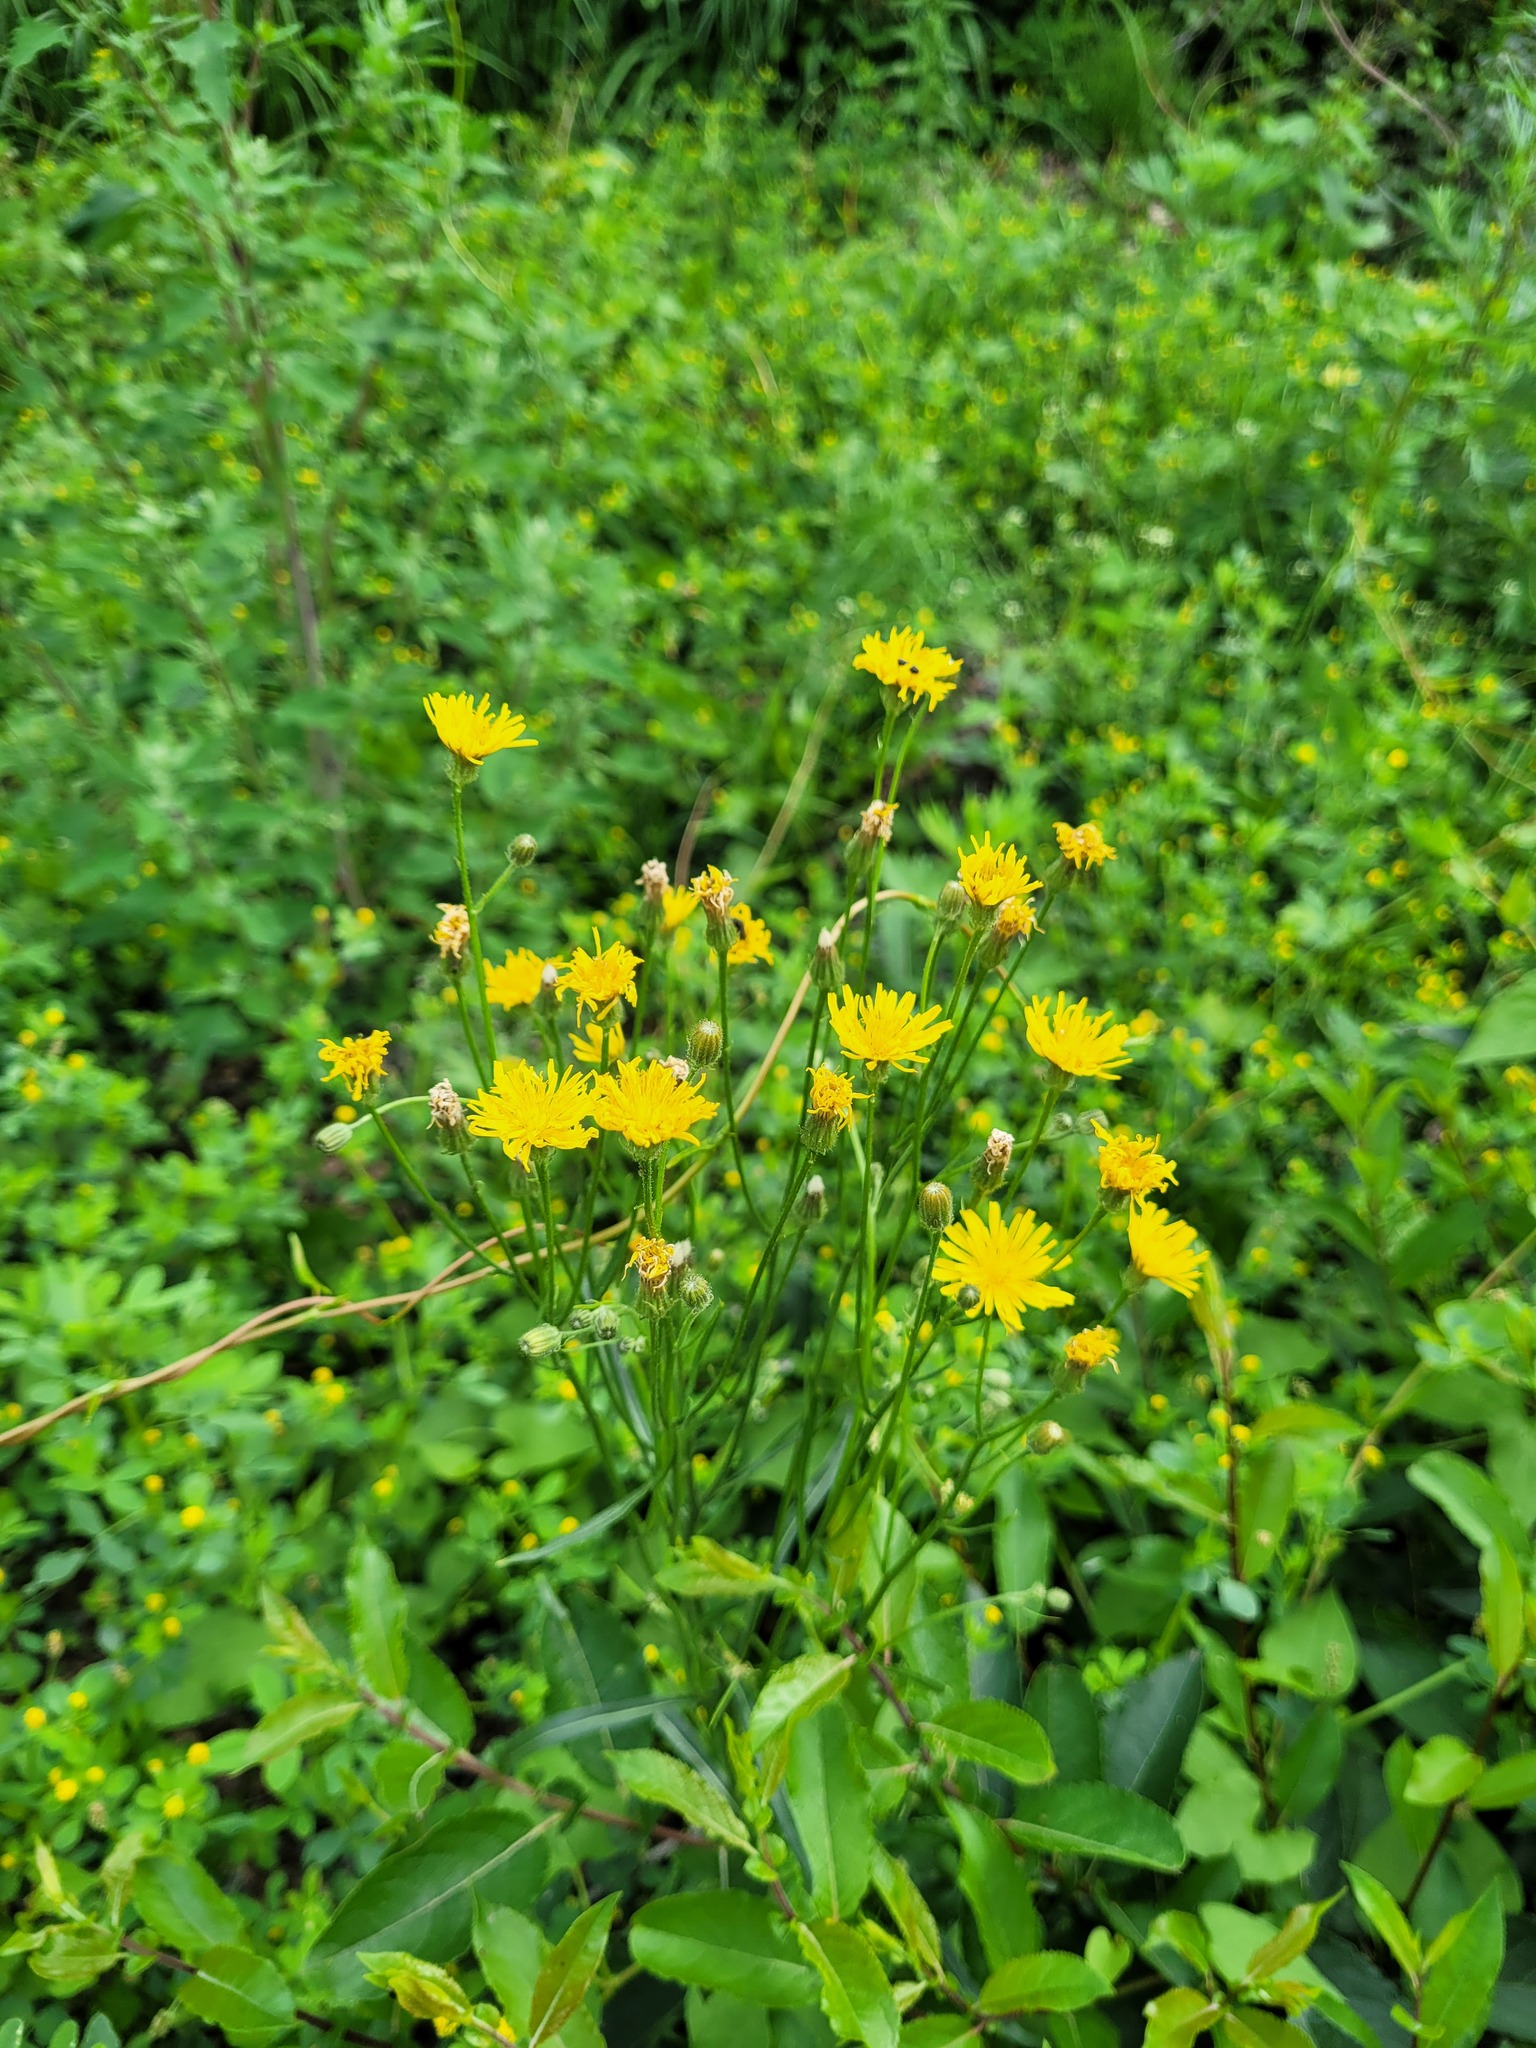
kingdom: Plantae
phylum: Tracheophyta
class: Magnoliopsida
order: Asterales
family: Asteraceae
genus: Crepis
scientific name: Crepis tectorum
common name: Narrow-leaved hawk's-beard
